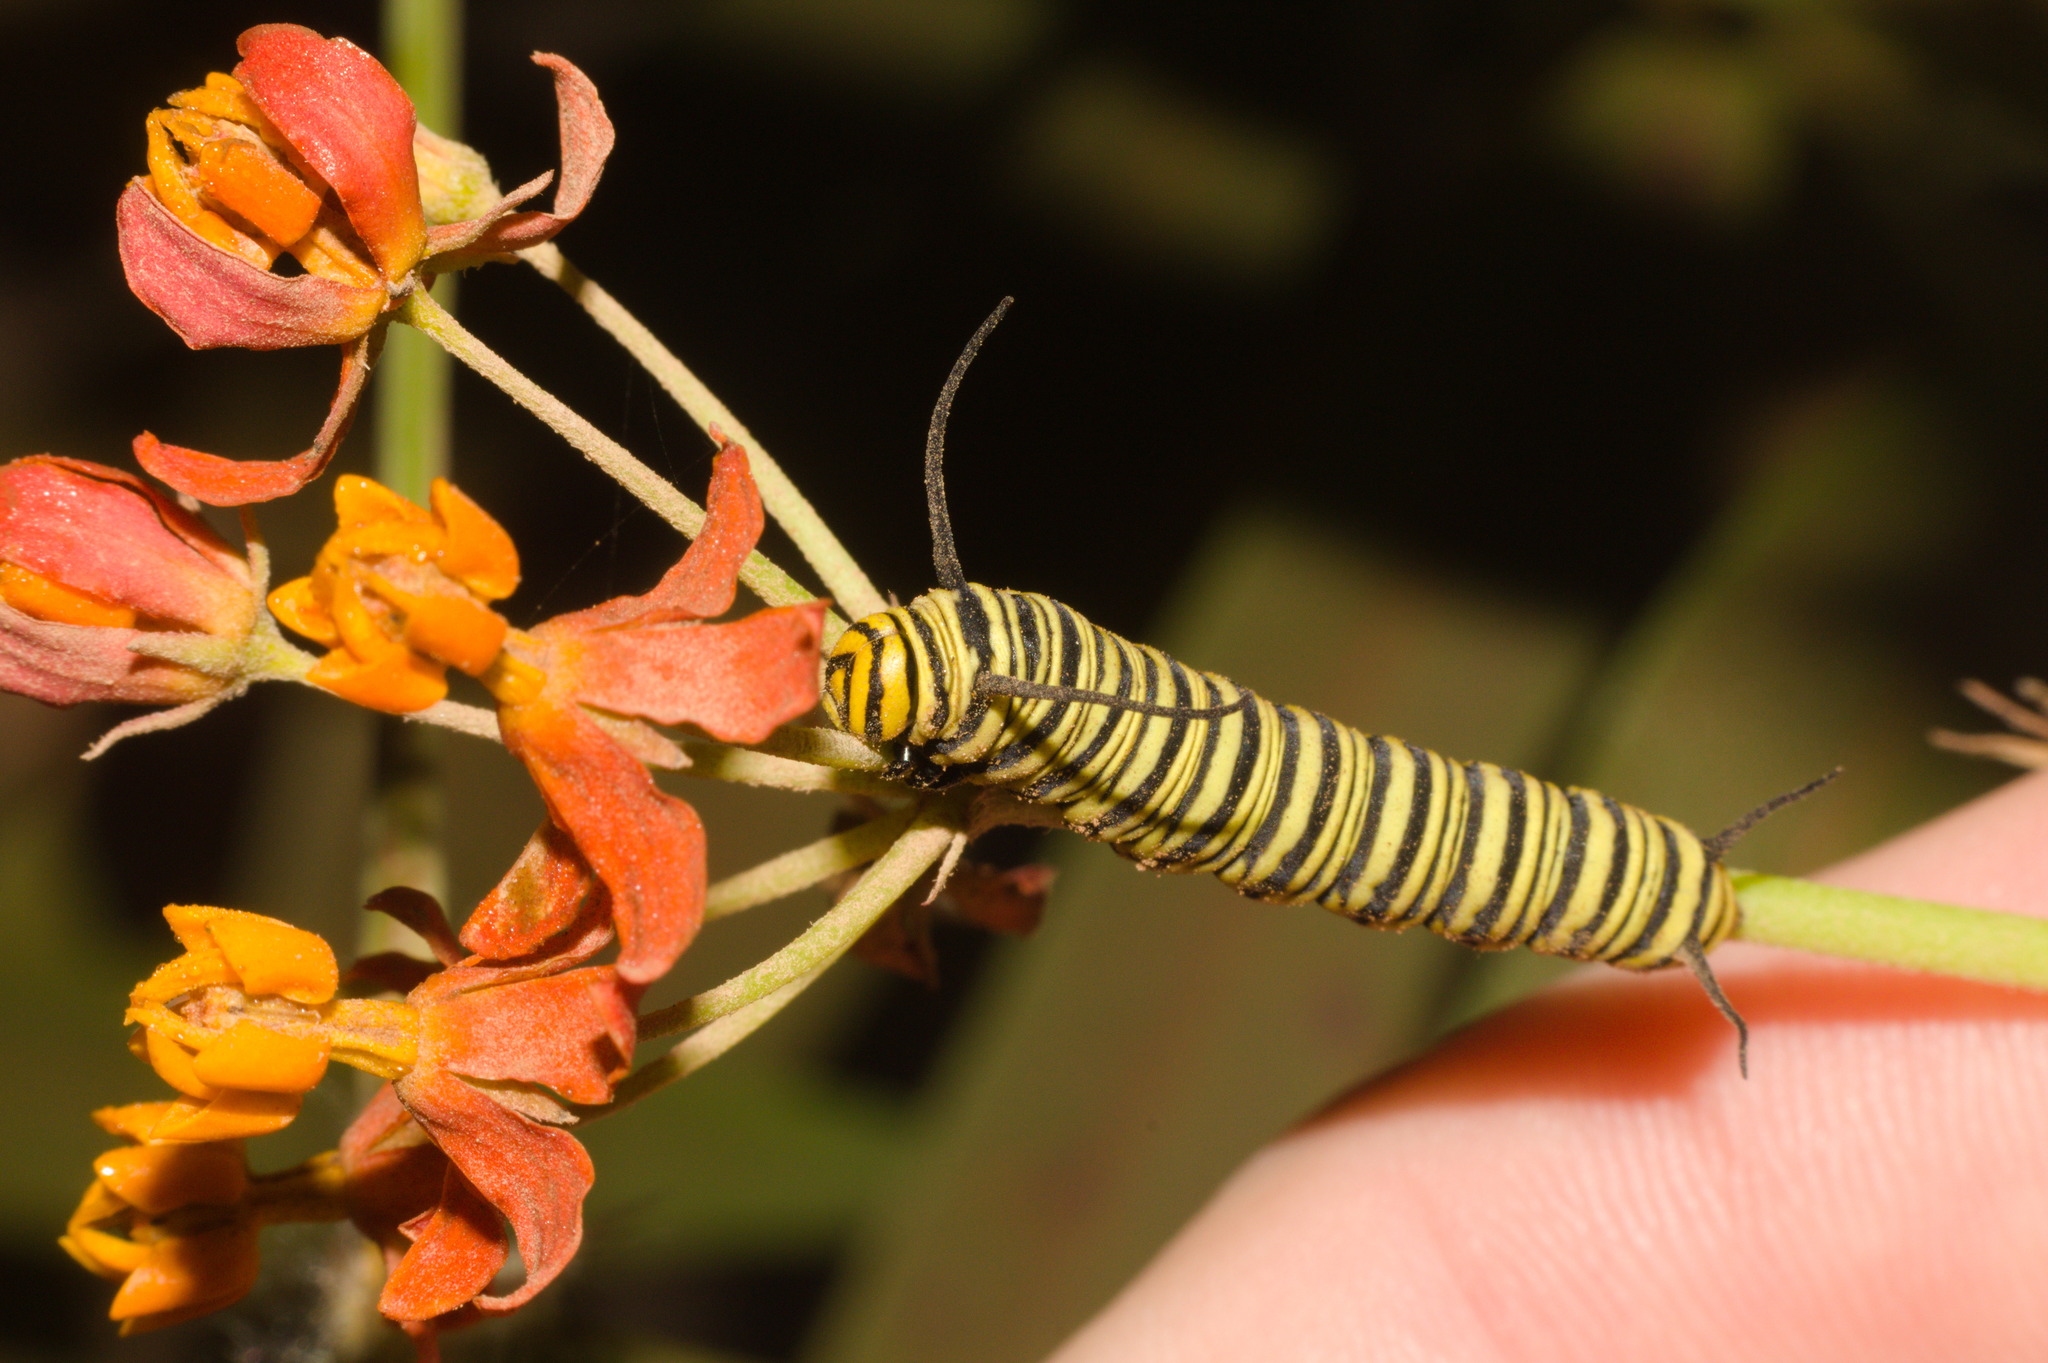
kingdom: Animalia
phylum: Arthropoda
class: Insecta
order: Lepidoptera
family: Nymphalidae
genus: Danaus
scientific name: Danaus erippus
